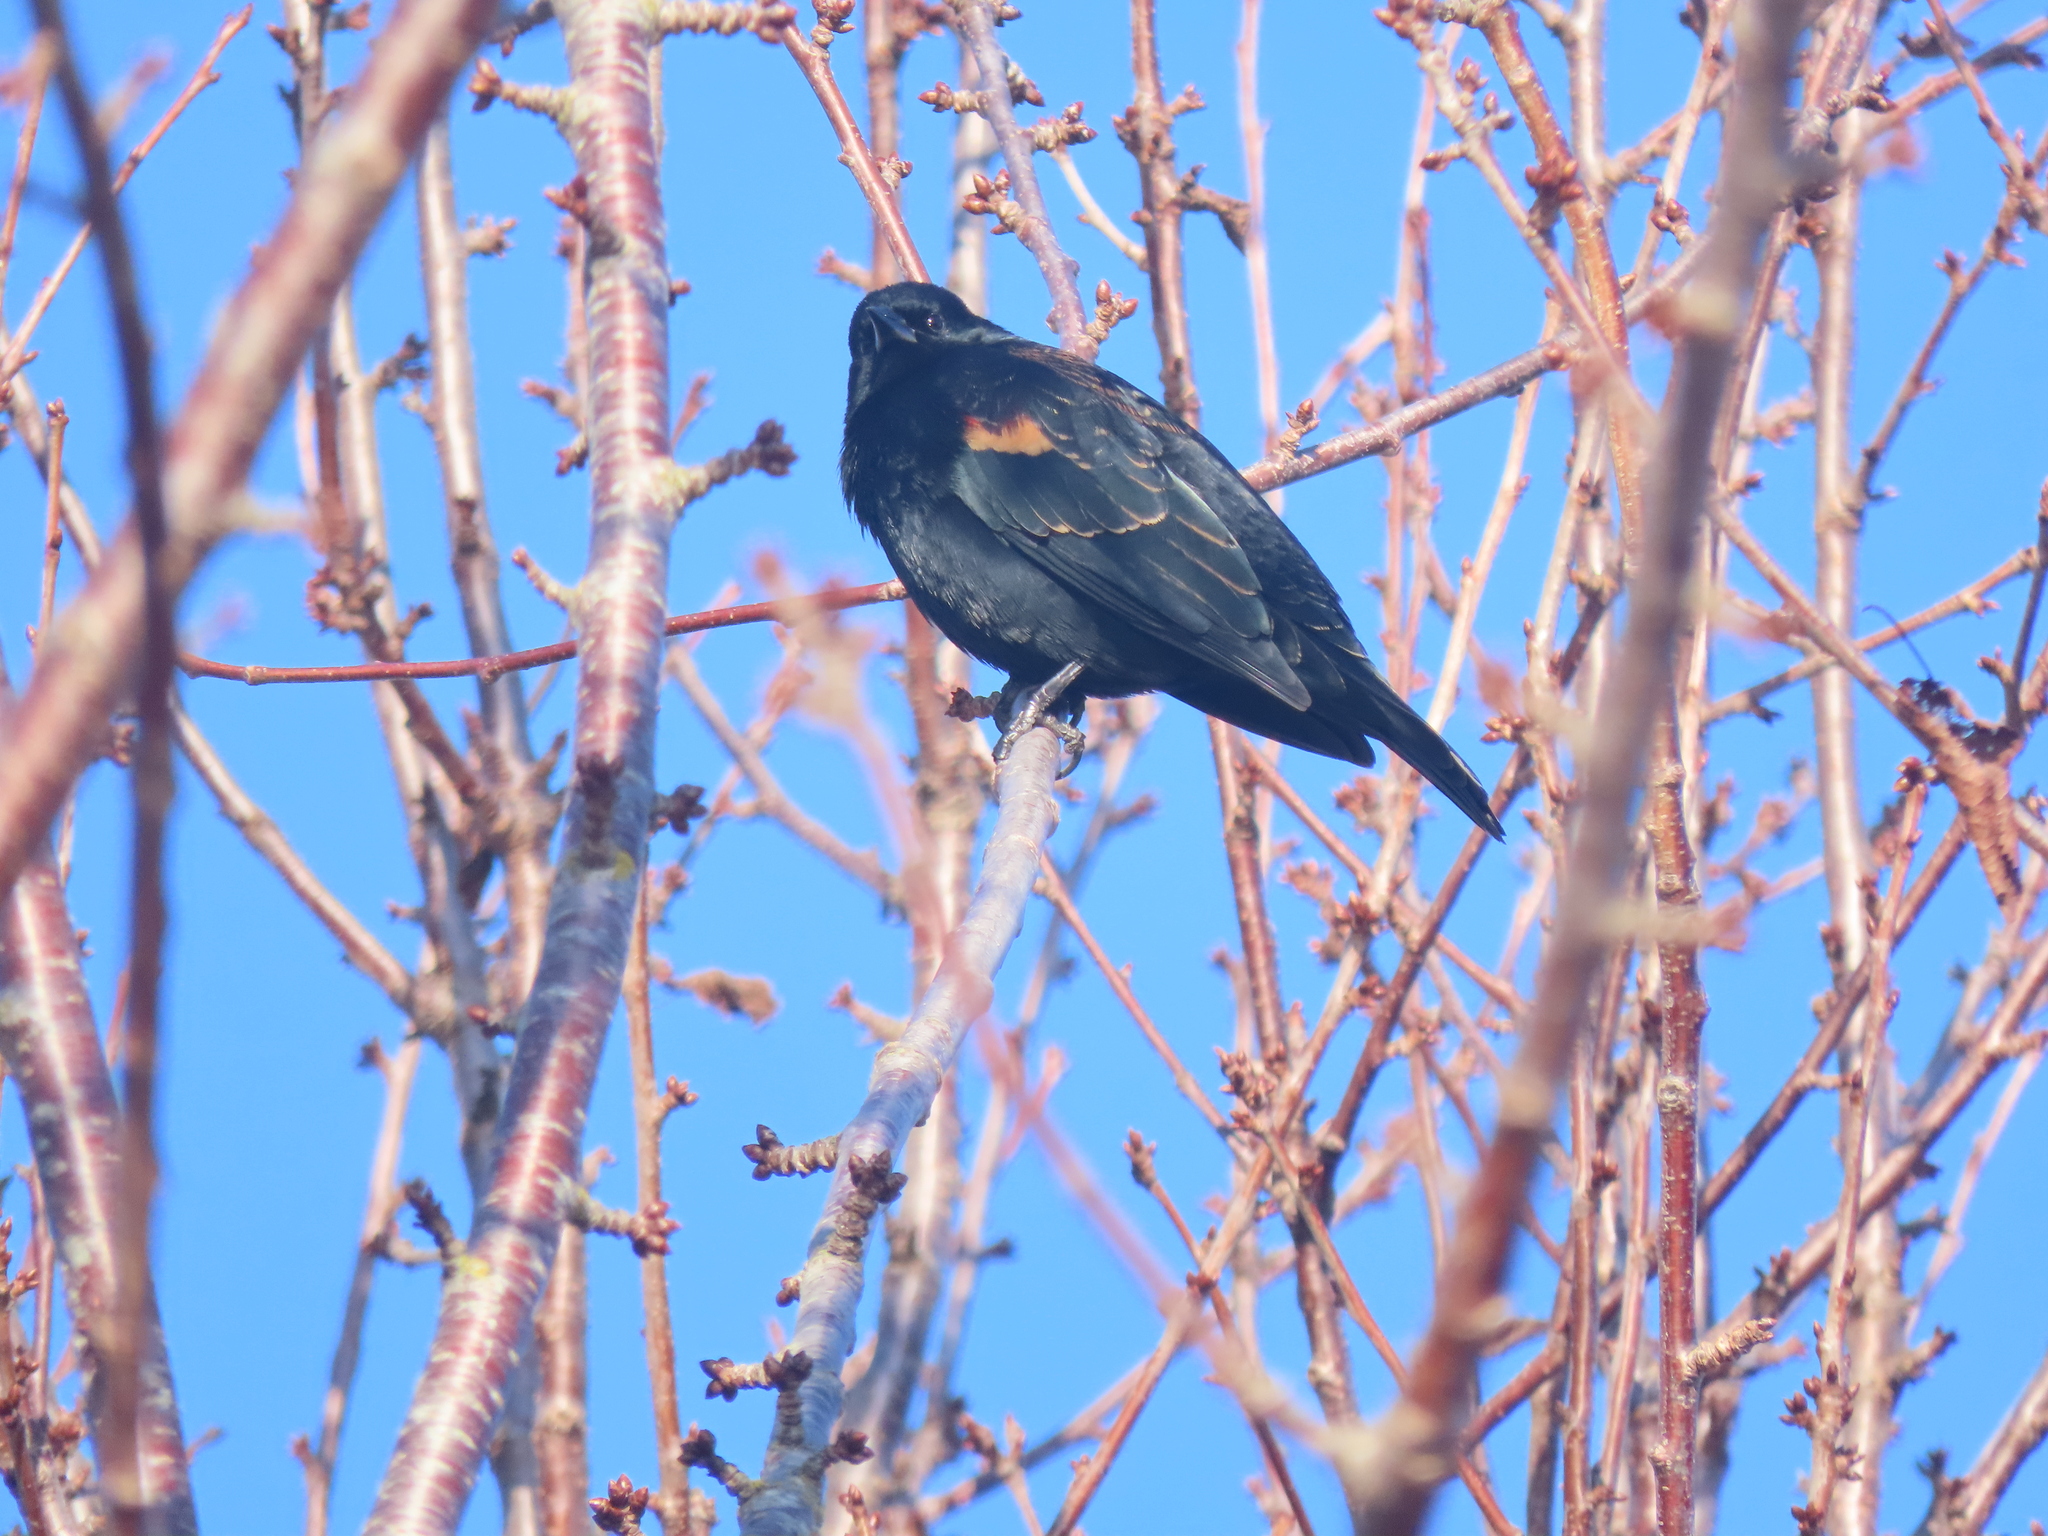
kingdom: Animalia
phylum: Chordata
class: Aves
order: Passeriformes
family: Icteridae
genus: Agelaius
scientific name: Agelaius phoeniceus
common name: Red-winged blackbird
